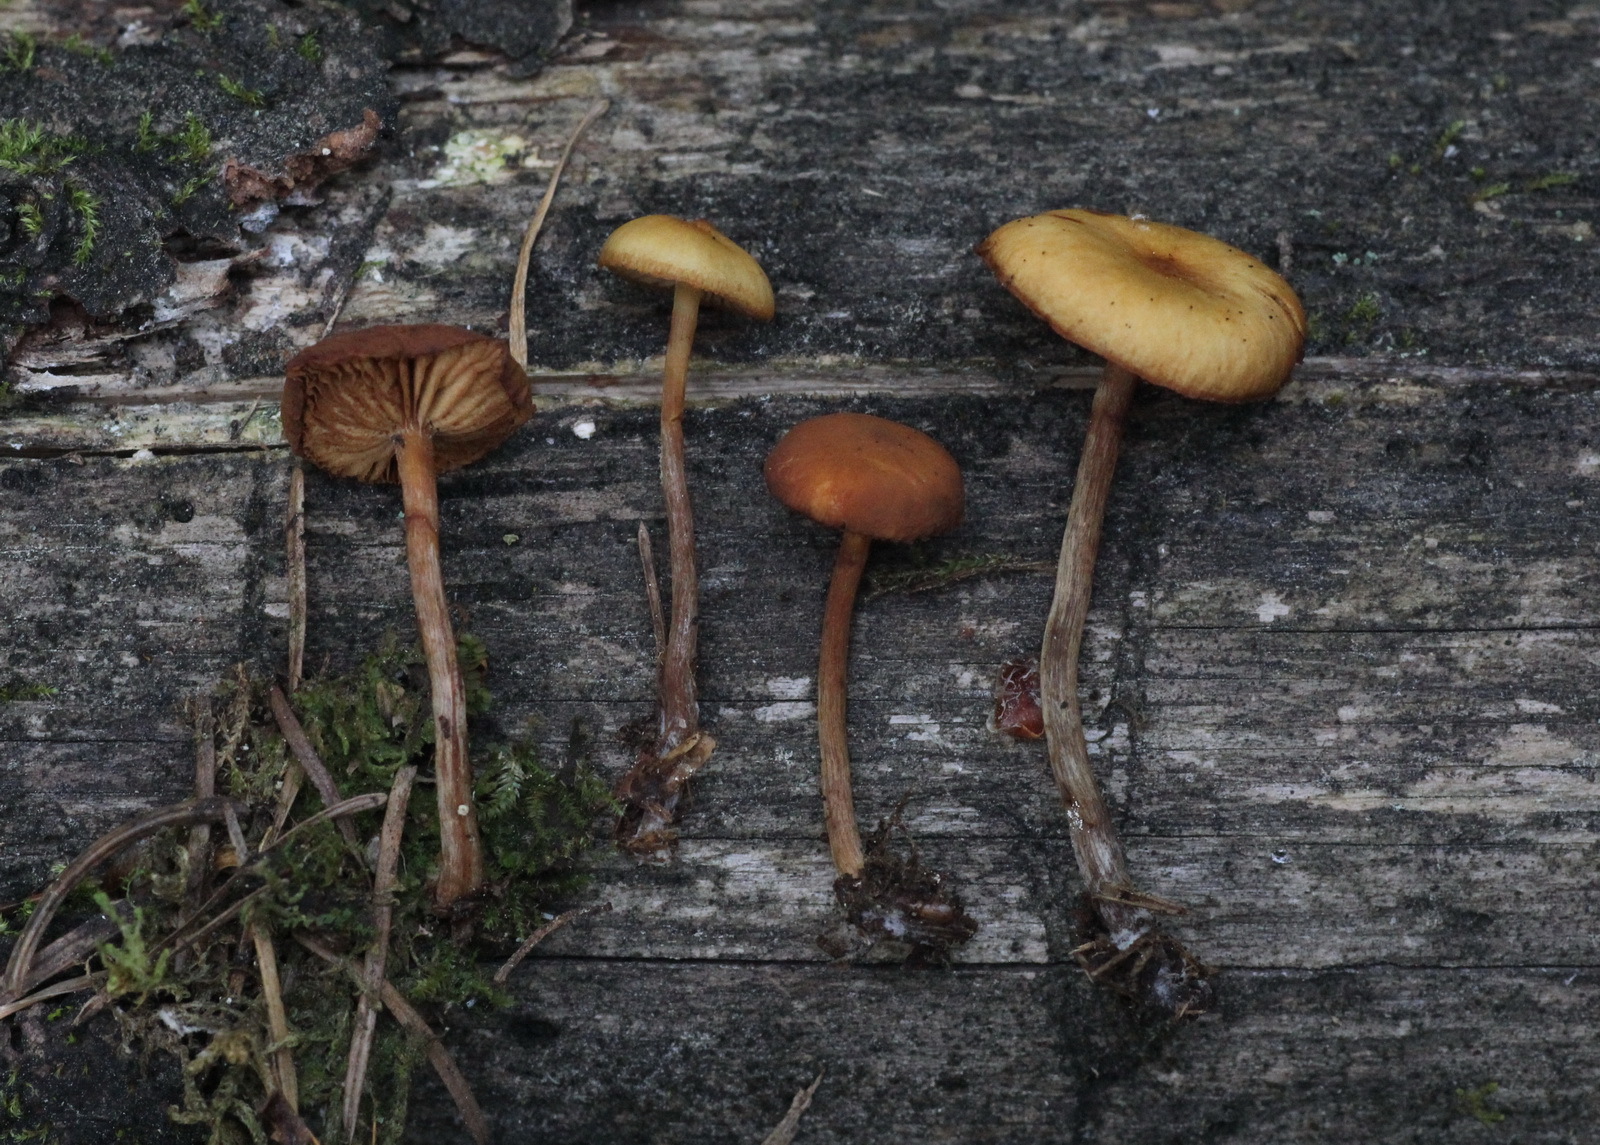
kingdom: Fungi
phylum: Basidiomycota
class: Agaricomycetes
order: Agaricales
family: Hymenogastraceae
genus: Galerina
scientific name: Galerina marginata
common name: Funeral bell
